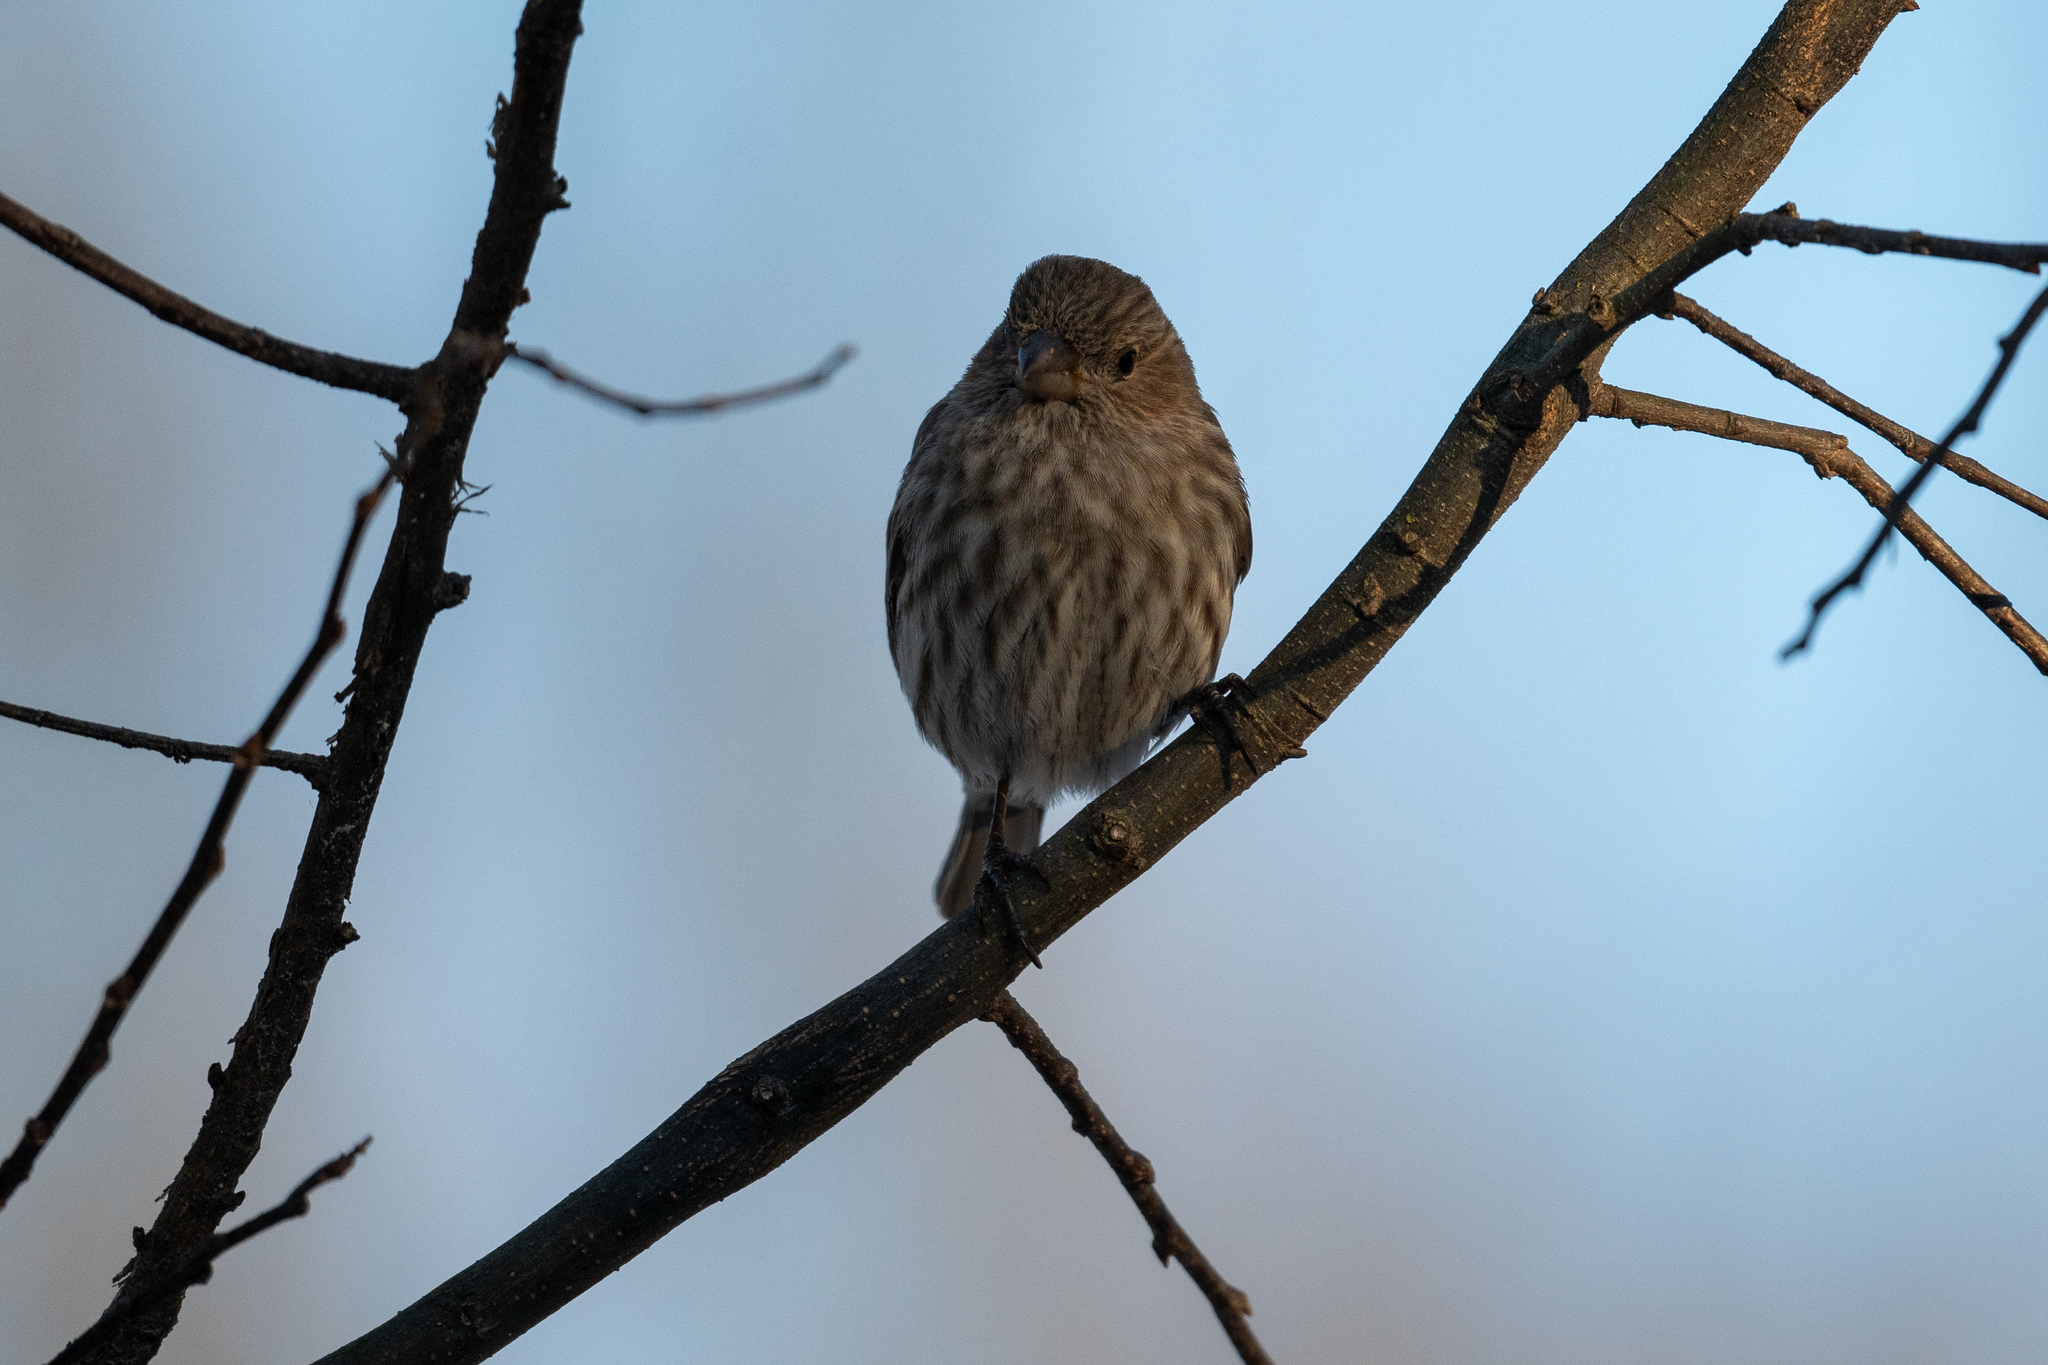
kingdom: Animalia
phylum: Chordata
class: Aves
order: Passeriformes
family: Fringillidae
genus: Haemorhous
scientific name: Haemorhous mexicanus
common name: House finch
